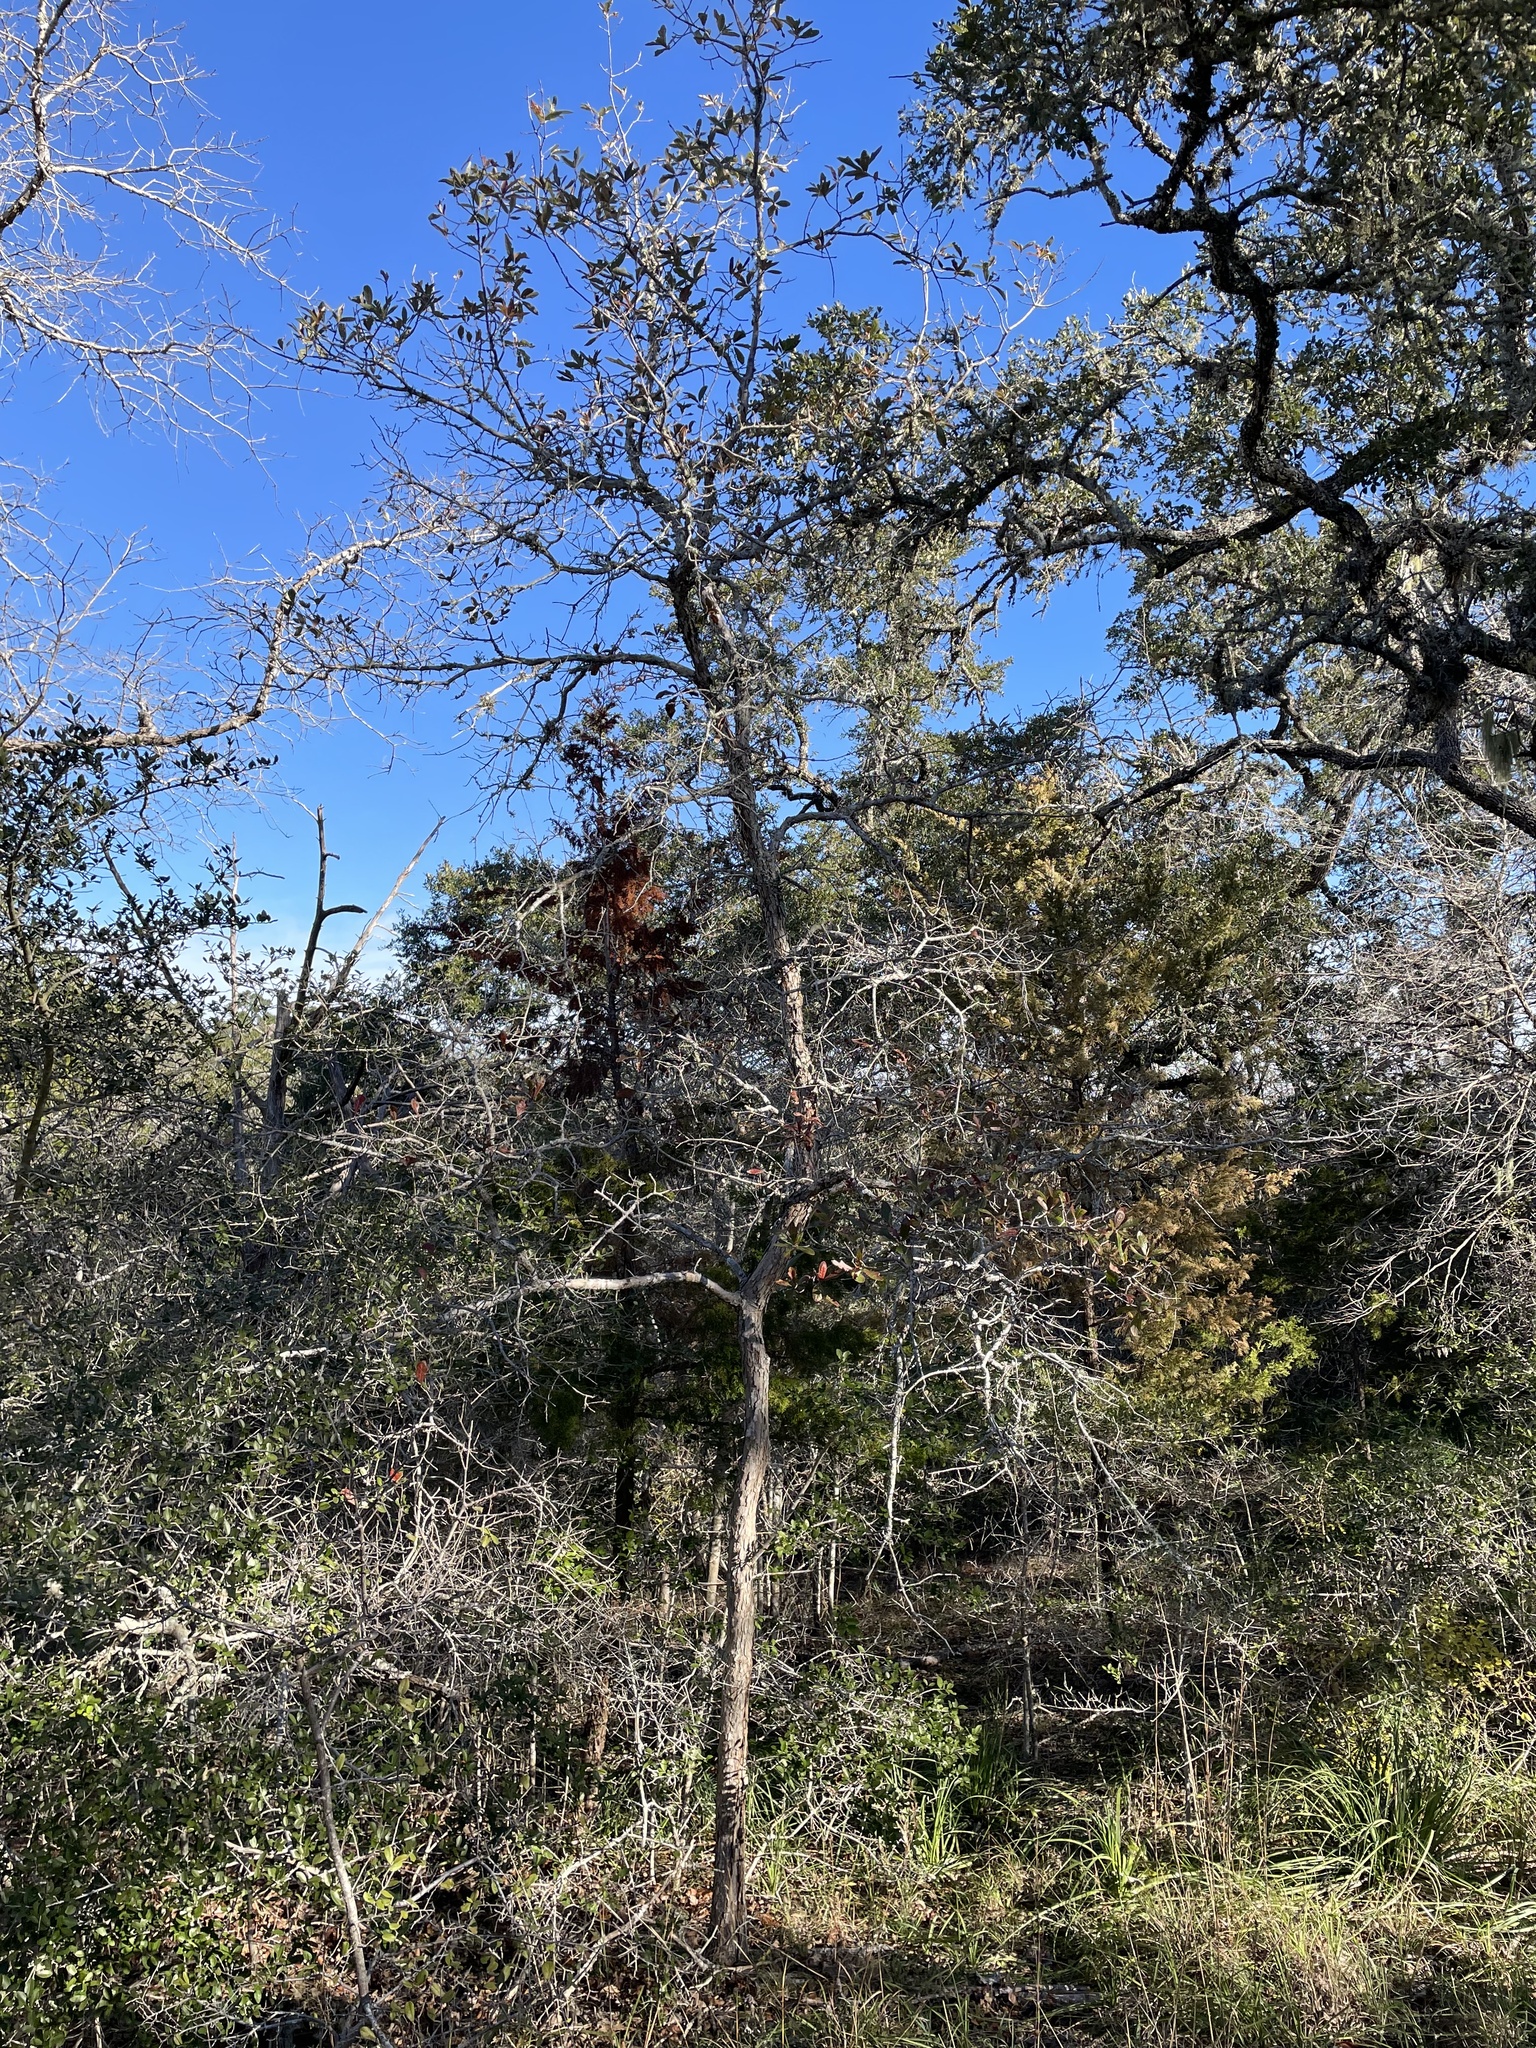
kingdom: Plantae
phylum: Tracheophyta
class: Magnoliopsida
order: Fagales
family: Fagaceae
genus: Quercus
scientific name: Quercus sinuata
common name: Durand oak
